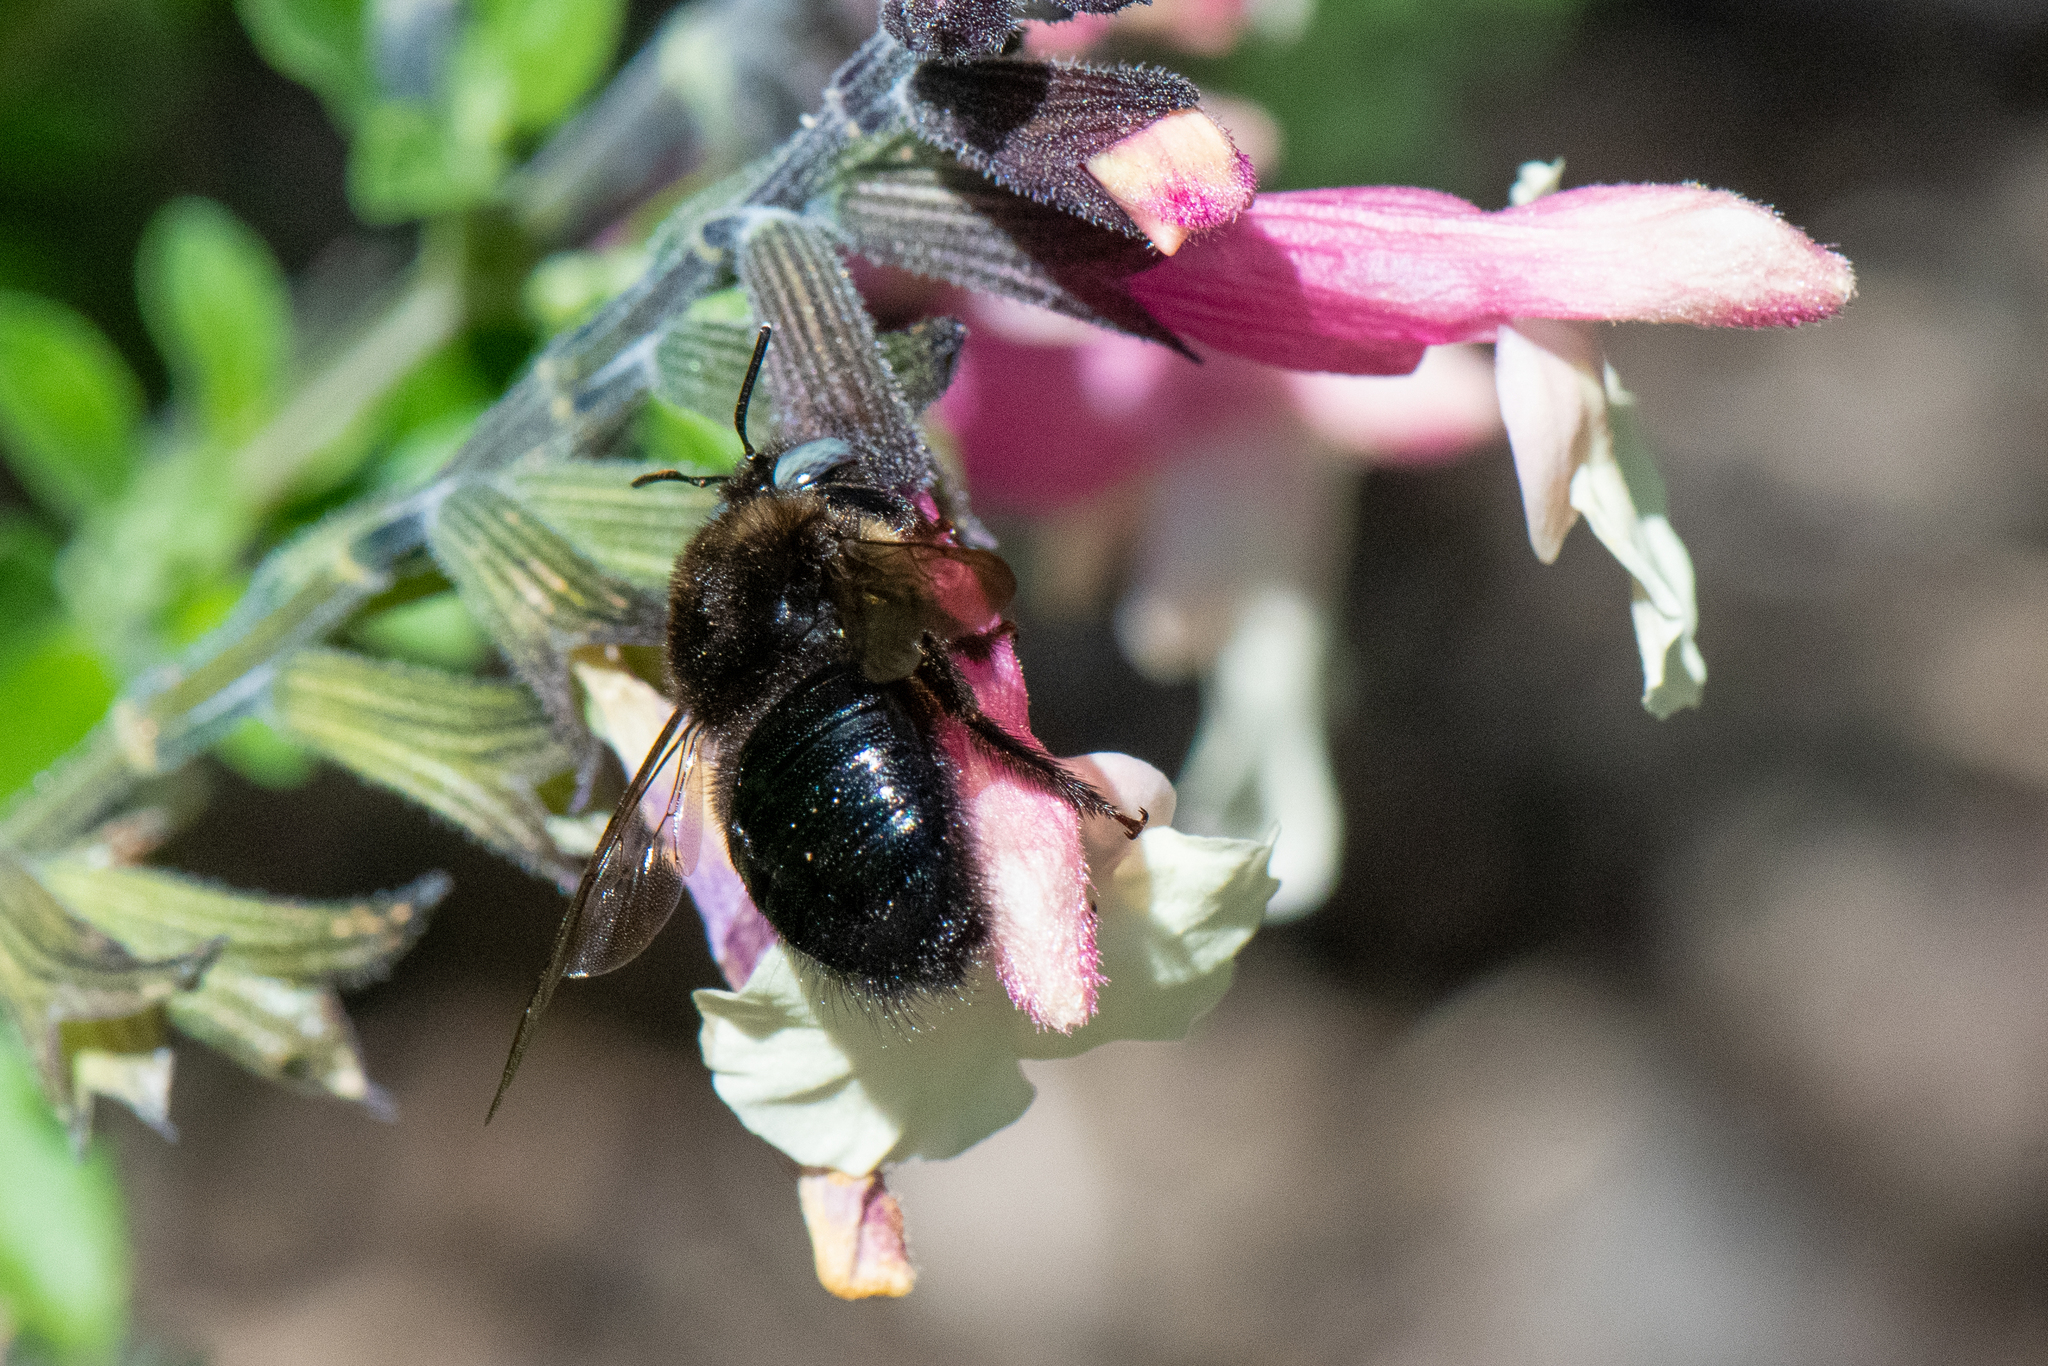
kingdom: Animalia
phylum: Arthropoda
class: Insecta
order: Hymenoptera
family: Apidae
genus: Xylocopa
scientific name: Xylocopa tabaniformis
